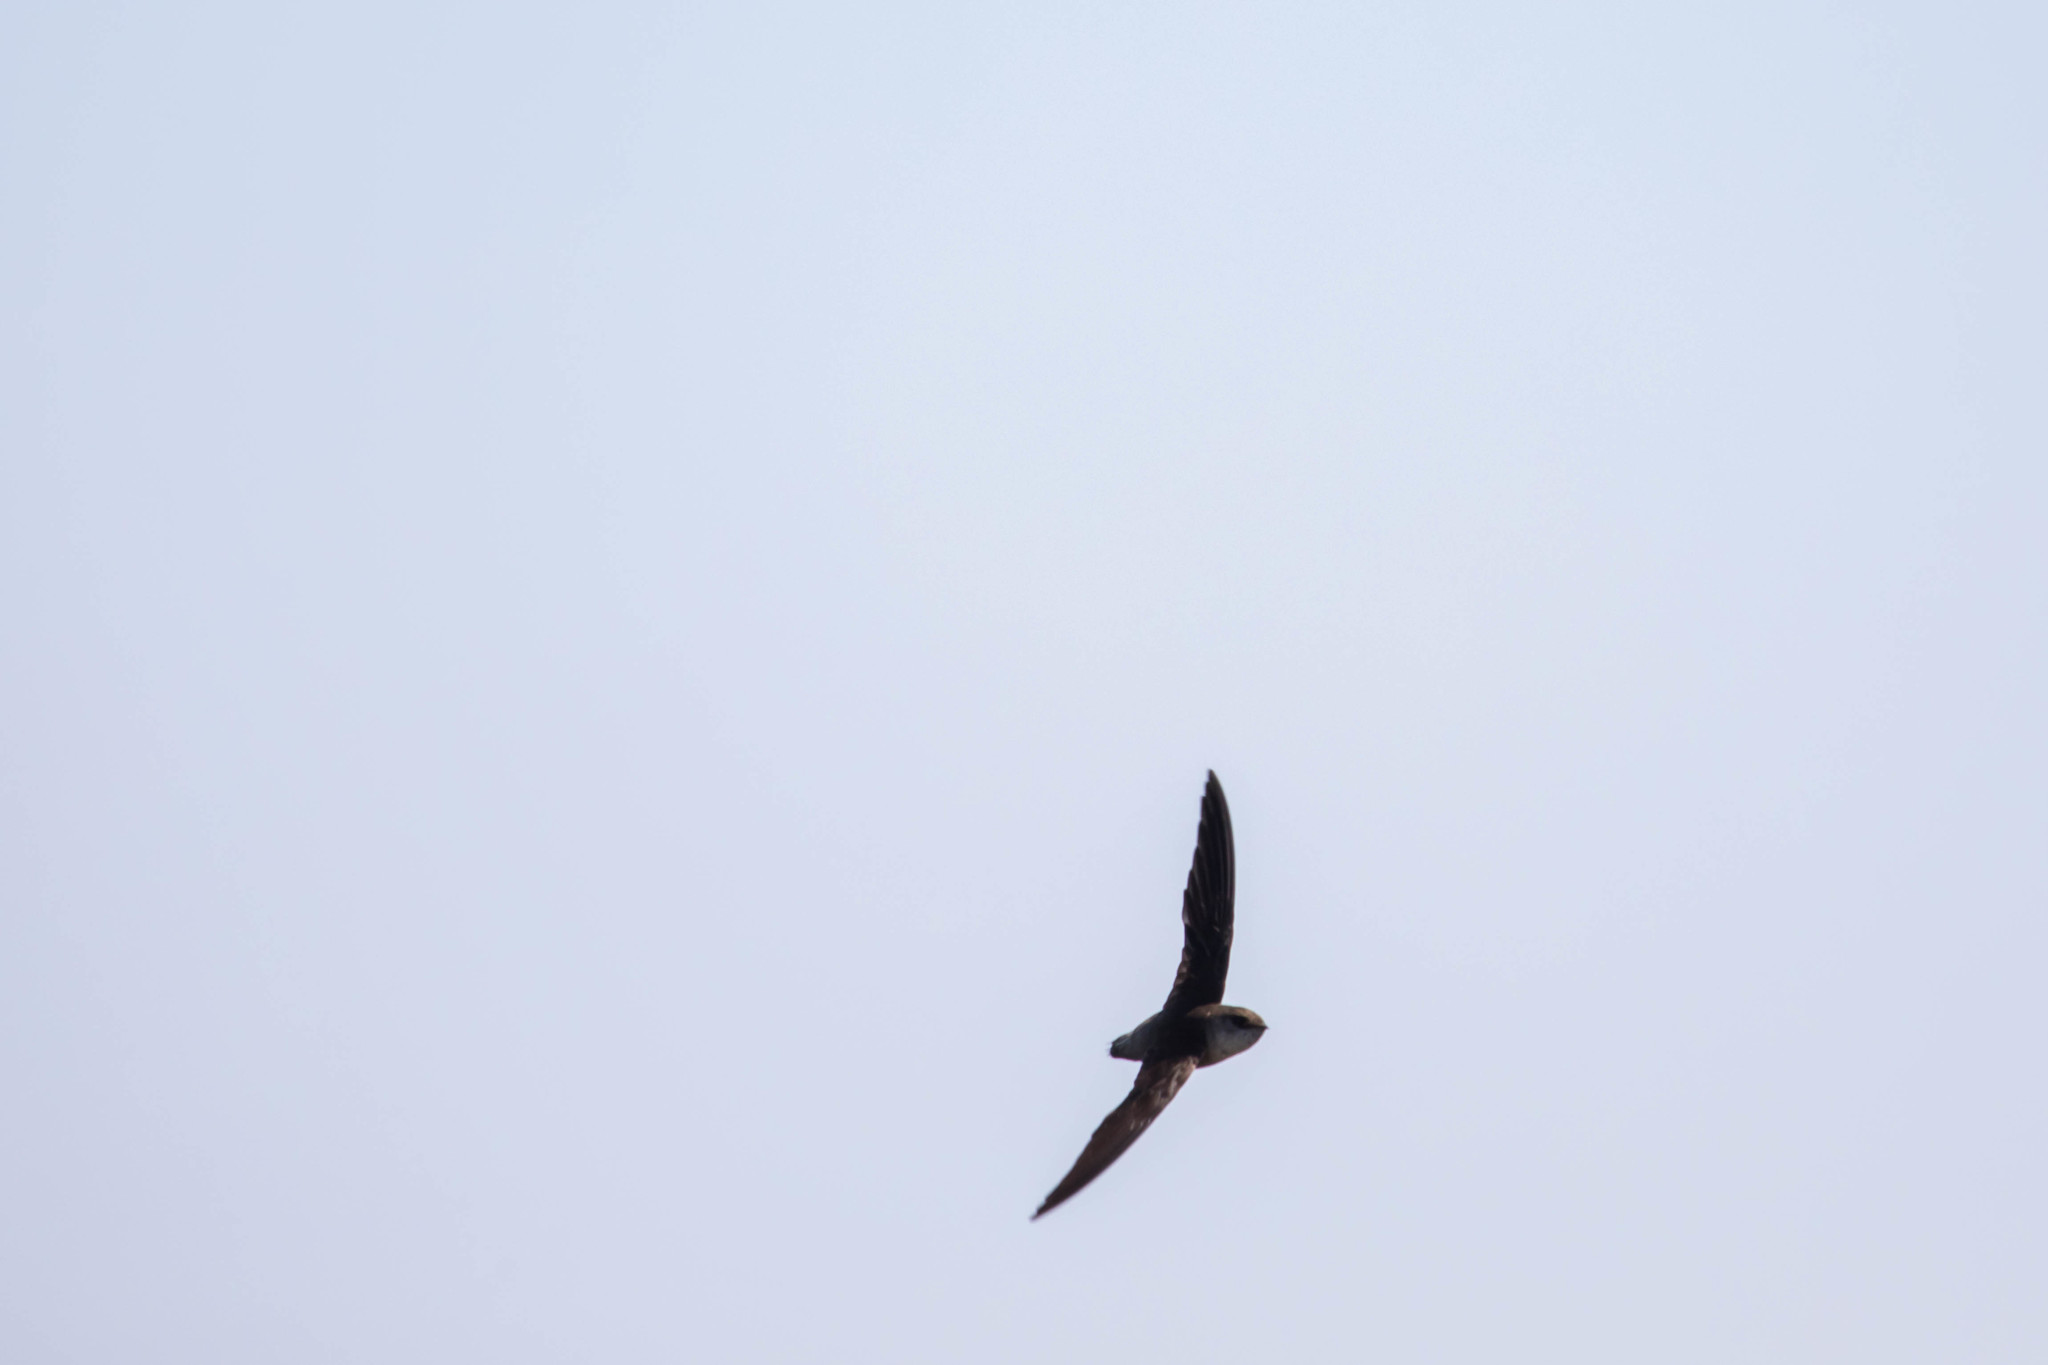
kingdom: Animalia
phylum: Chordata
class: Aves
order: Apodiformes
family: Apodidae
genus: Chaetura
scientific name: Chaetura vauxi
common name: Vaux's swift
